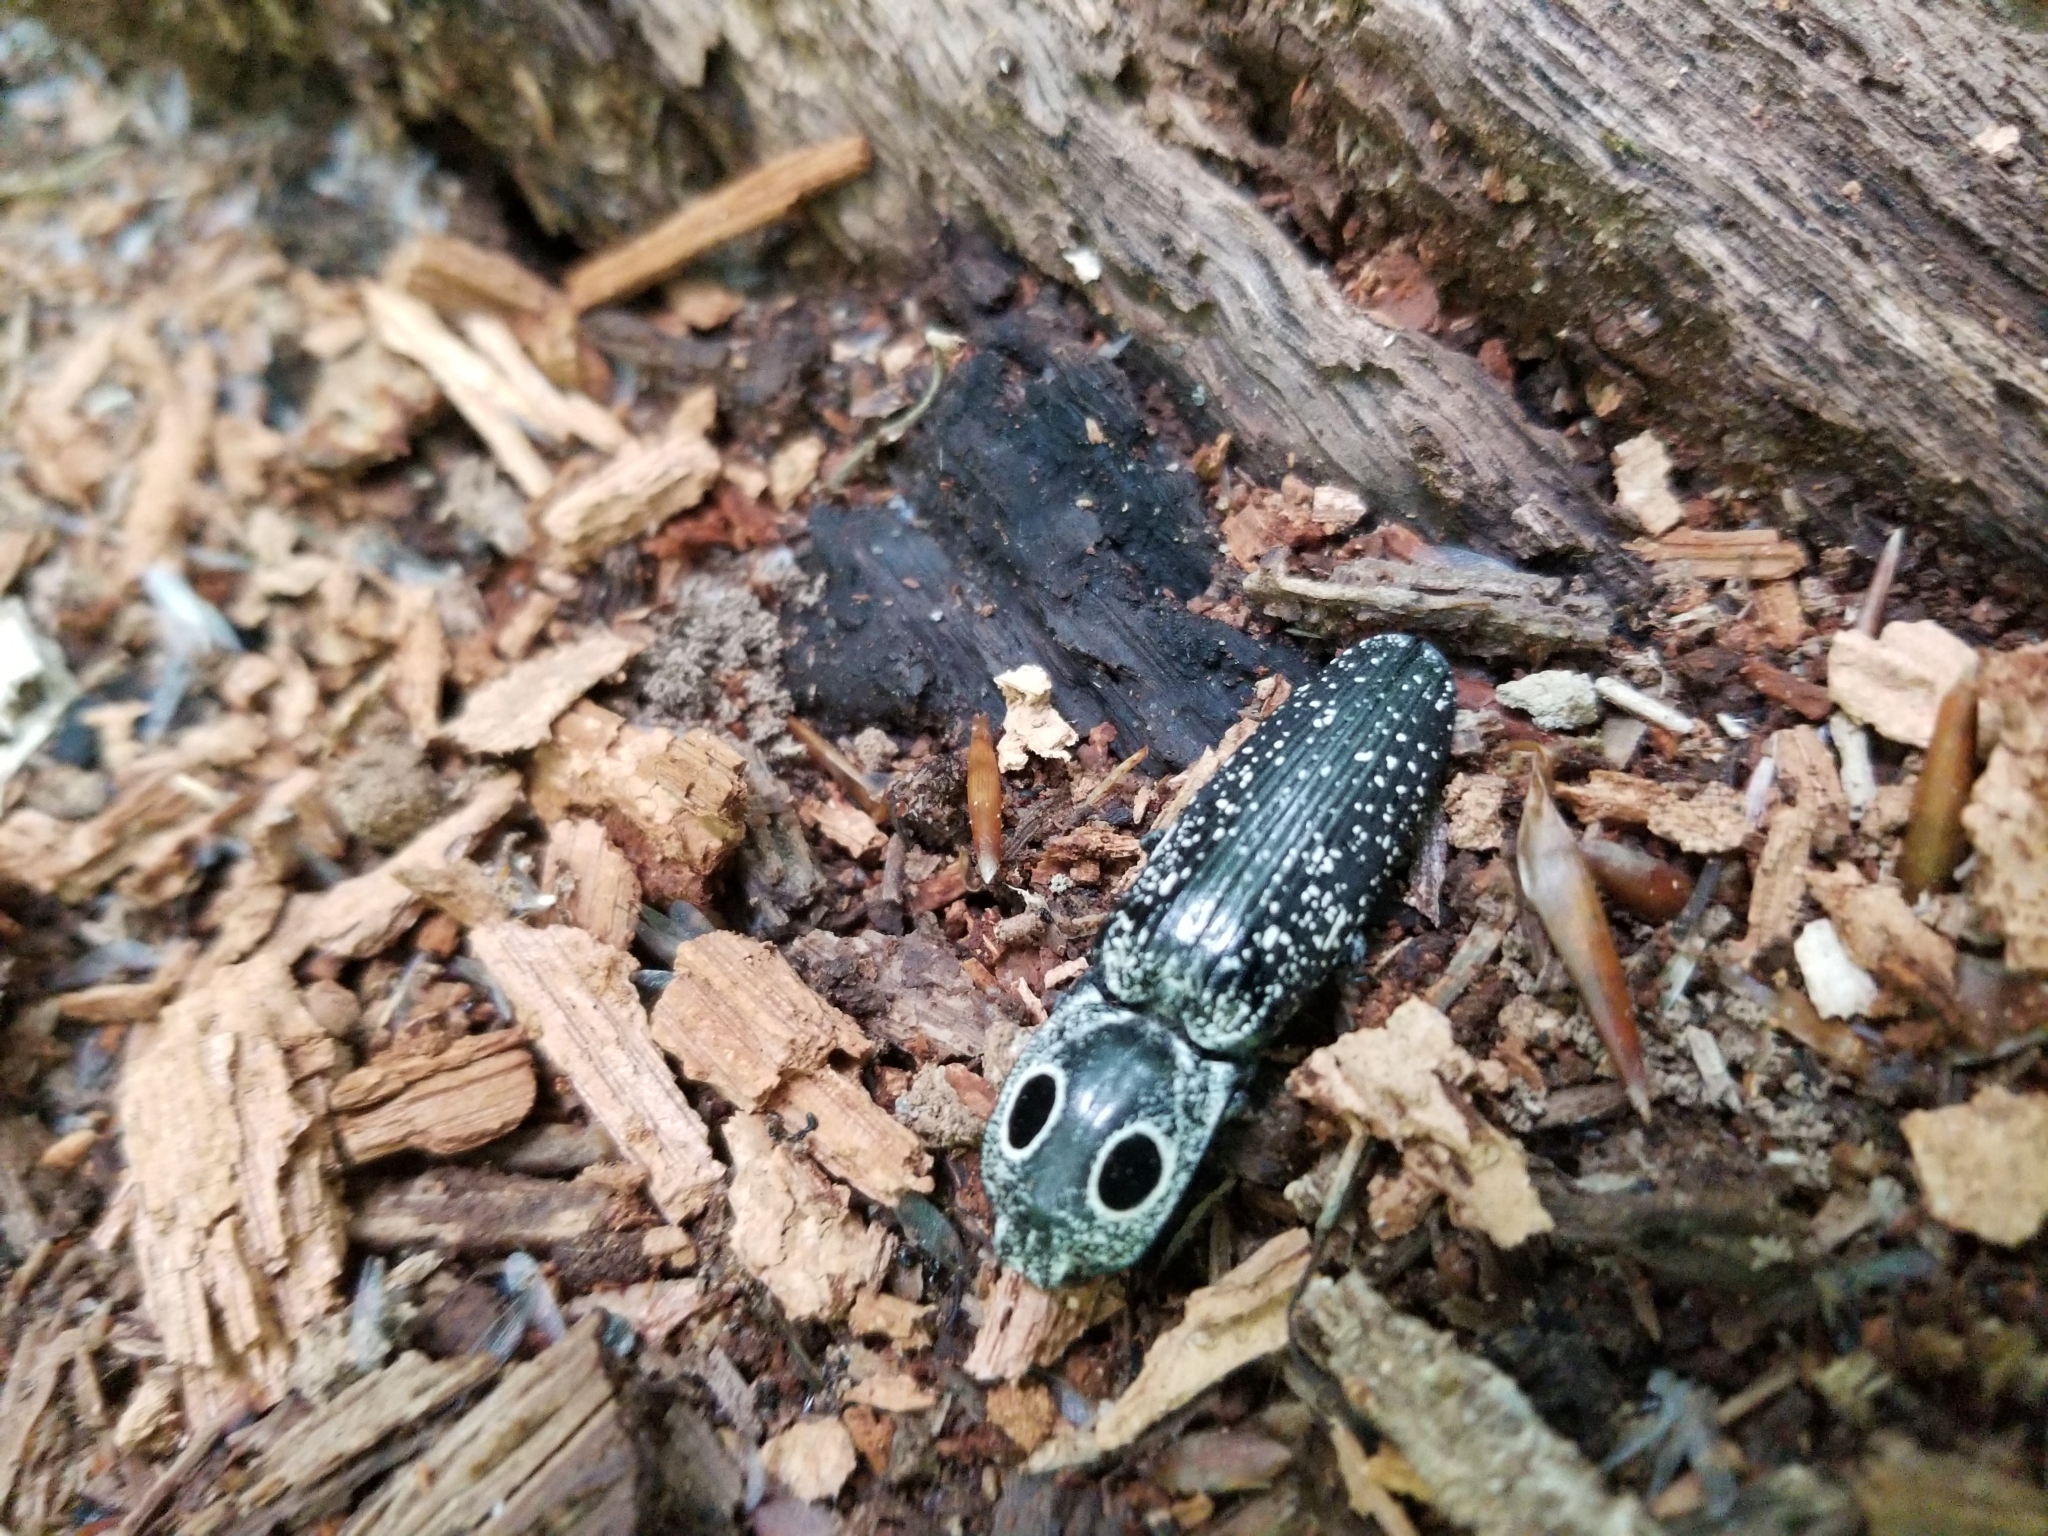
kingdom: Animalia
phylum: Arthropoda
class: Insecta
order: Coleoptera
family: Elateridae
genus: Alaus
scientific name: Alaus oculatus
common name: Eastern eyed click beetle
